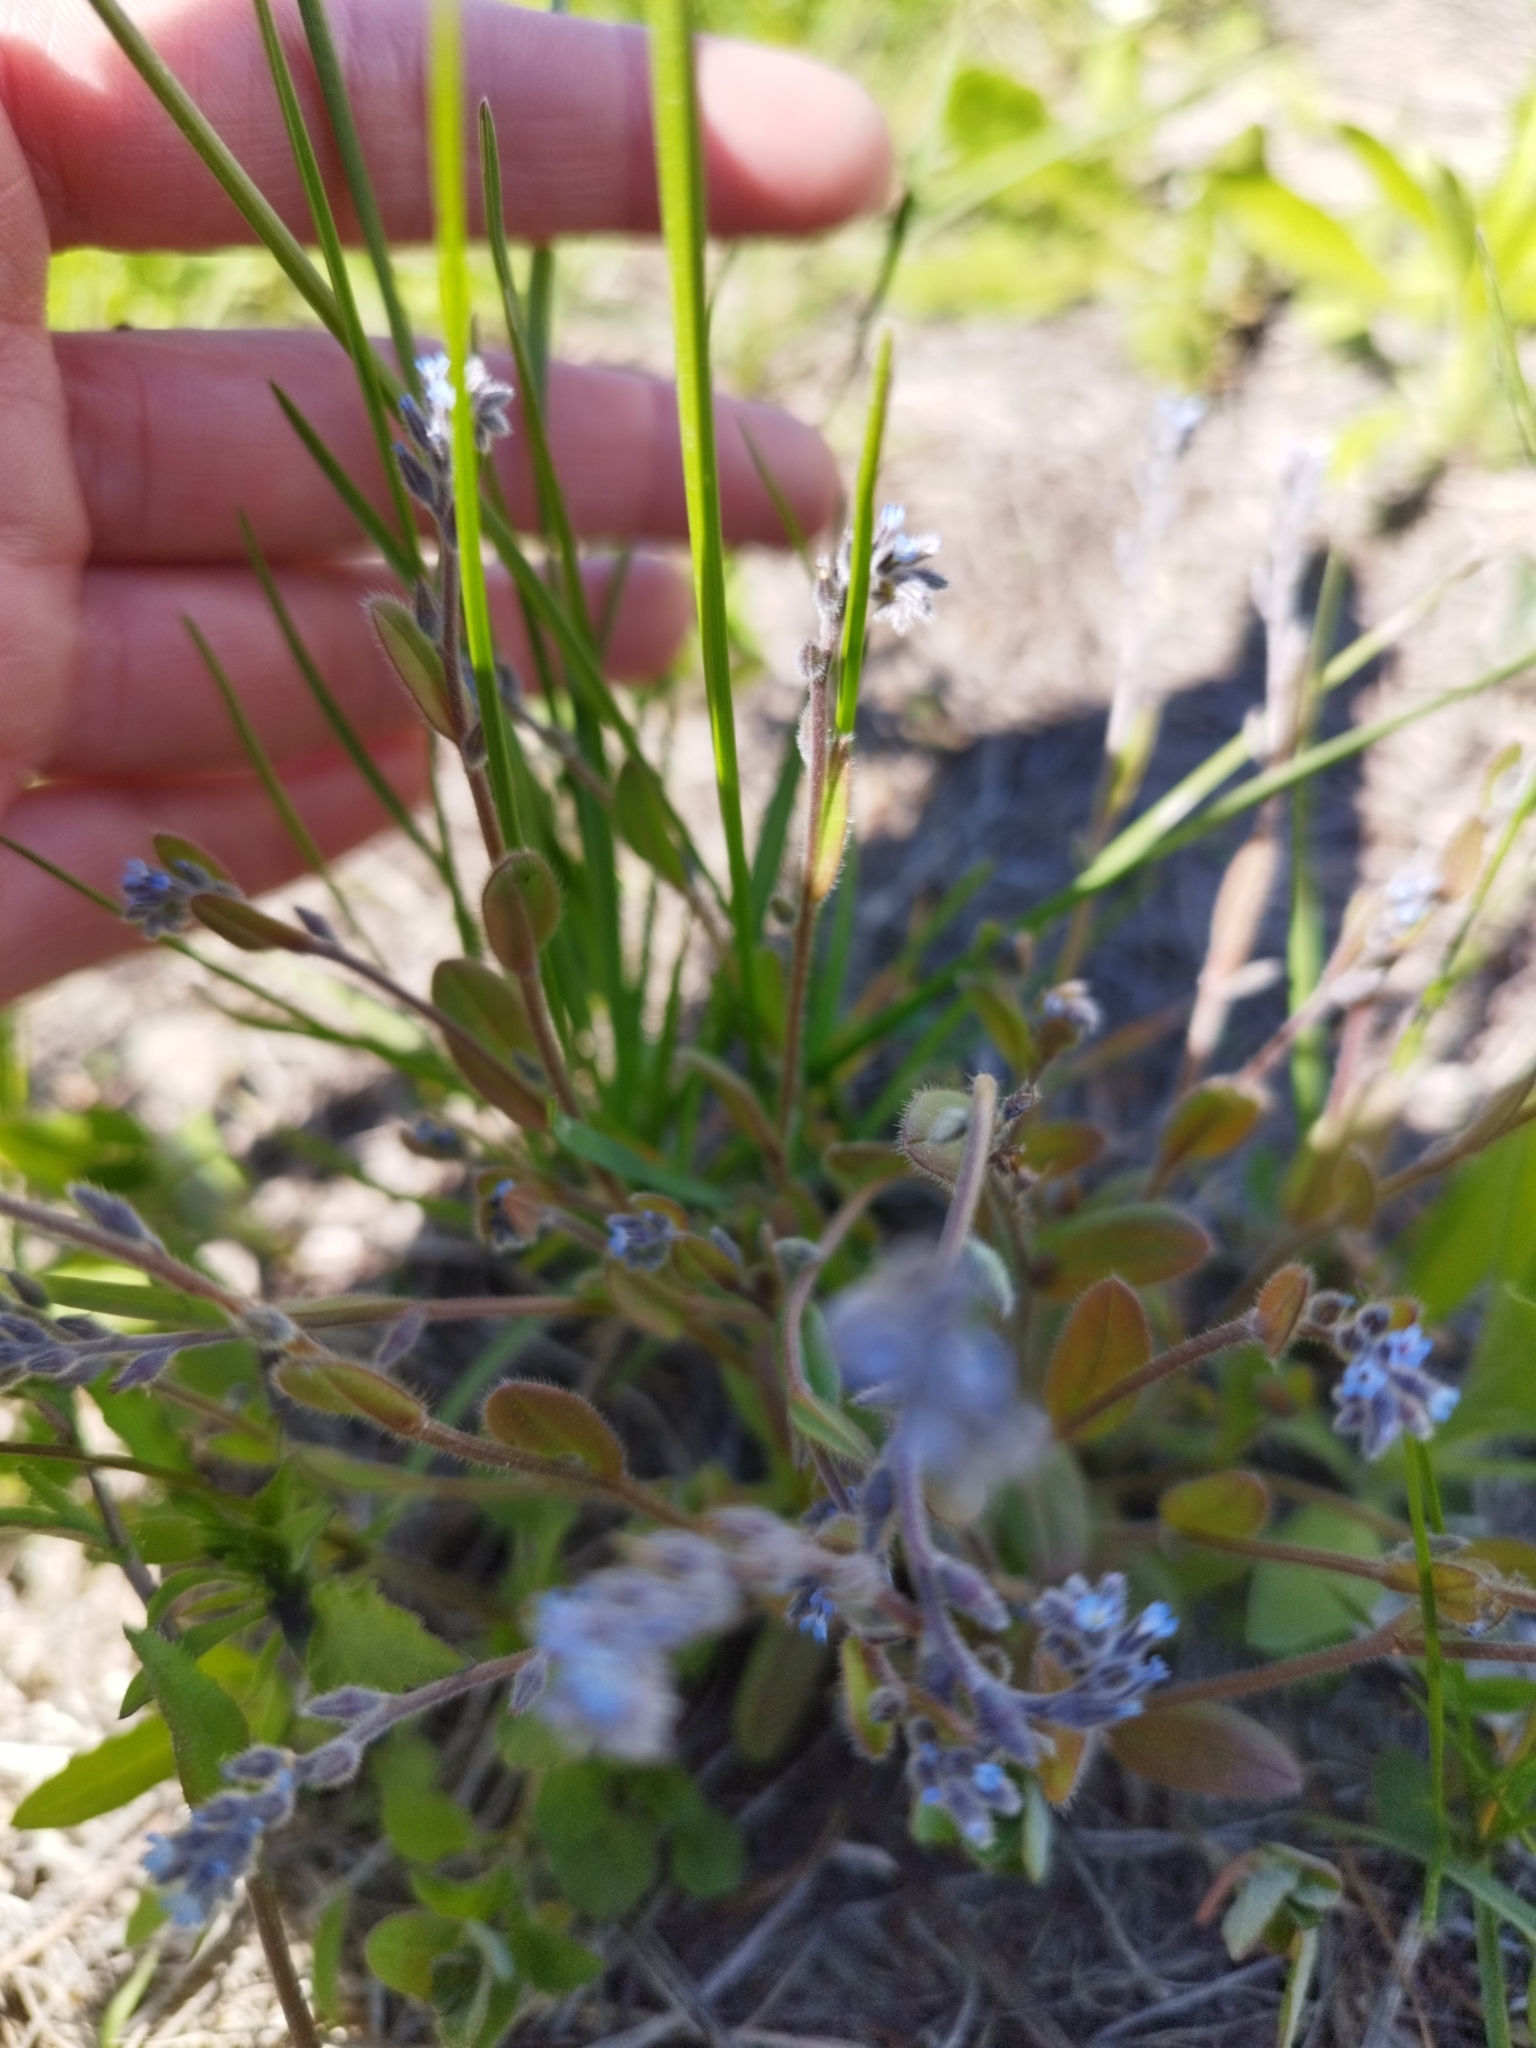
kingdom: Plantae
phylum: Tracheophyta
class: Magnoliopsida
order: Boraginales
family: Boraginaceae
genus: Myosotis
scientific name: Myosotis stricta
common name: Strict forget-me-not
